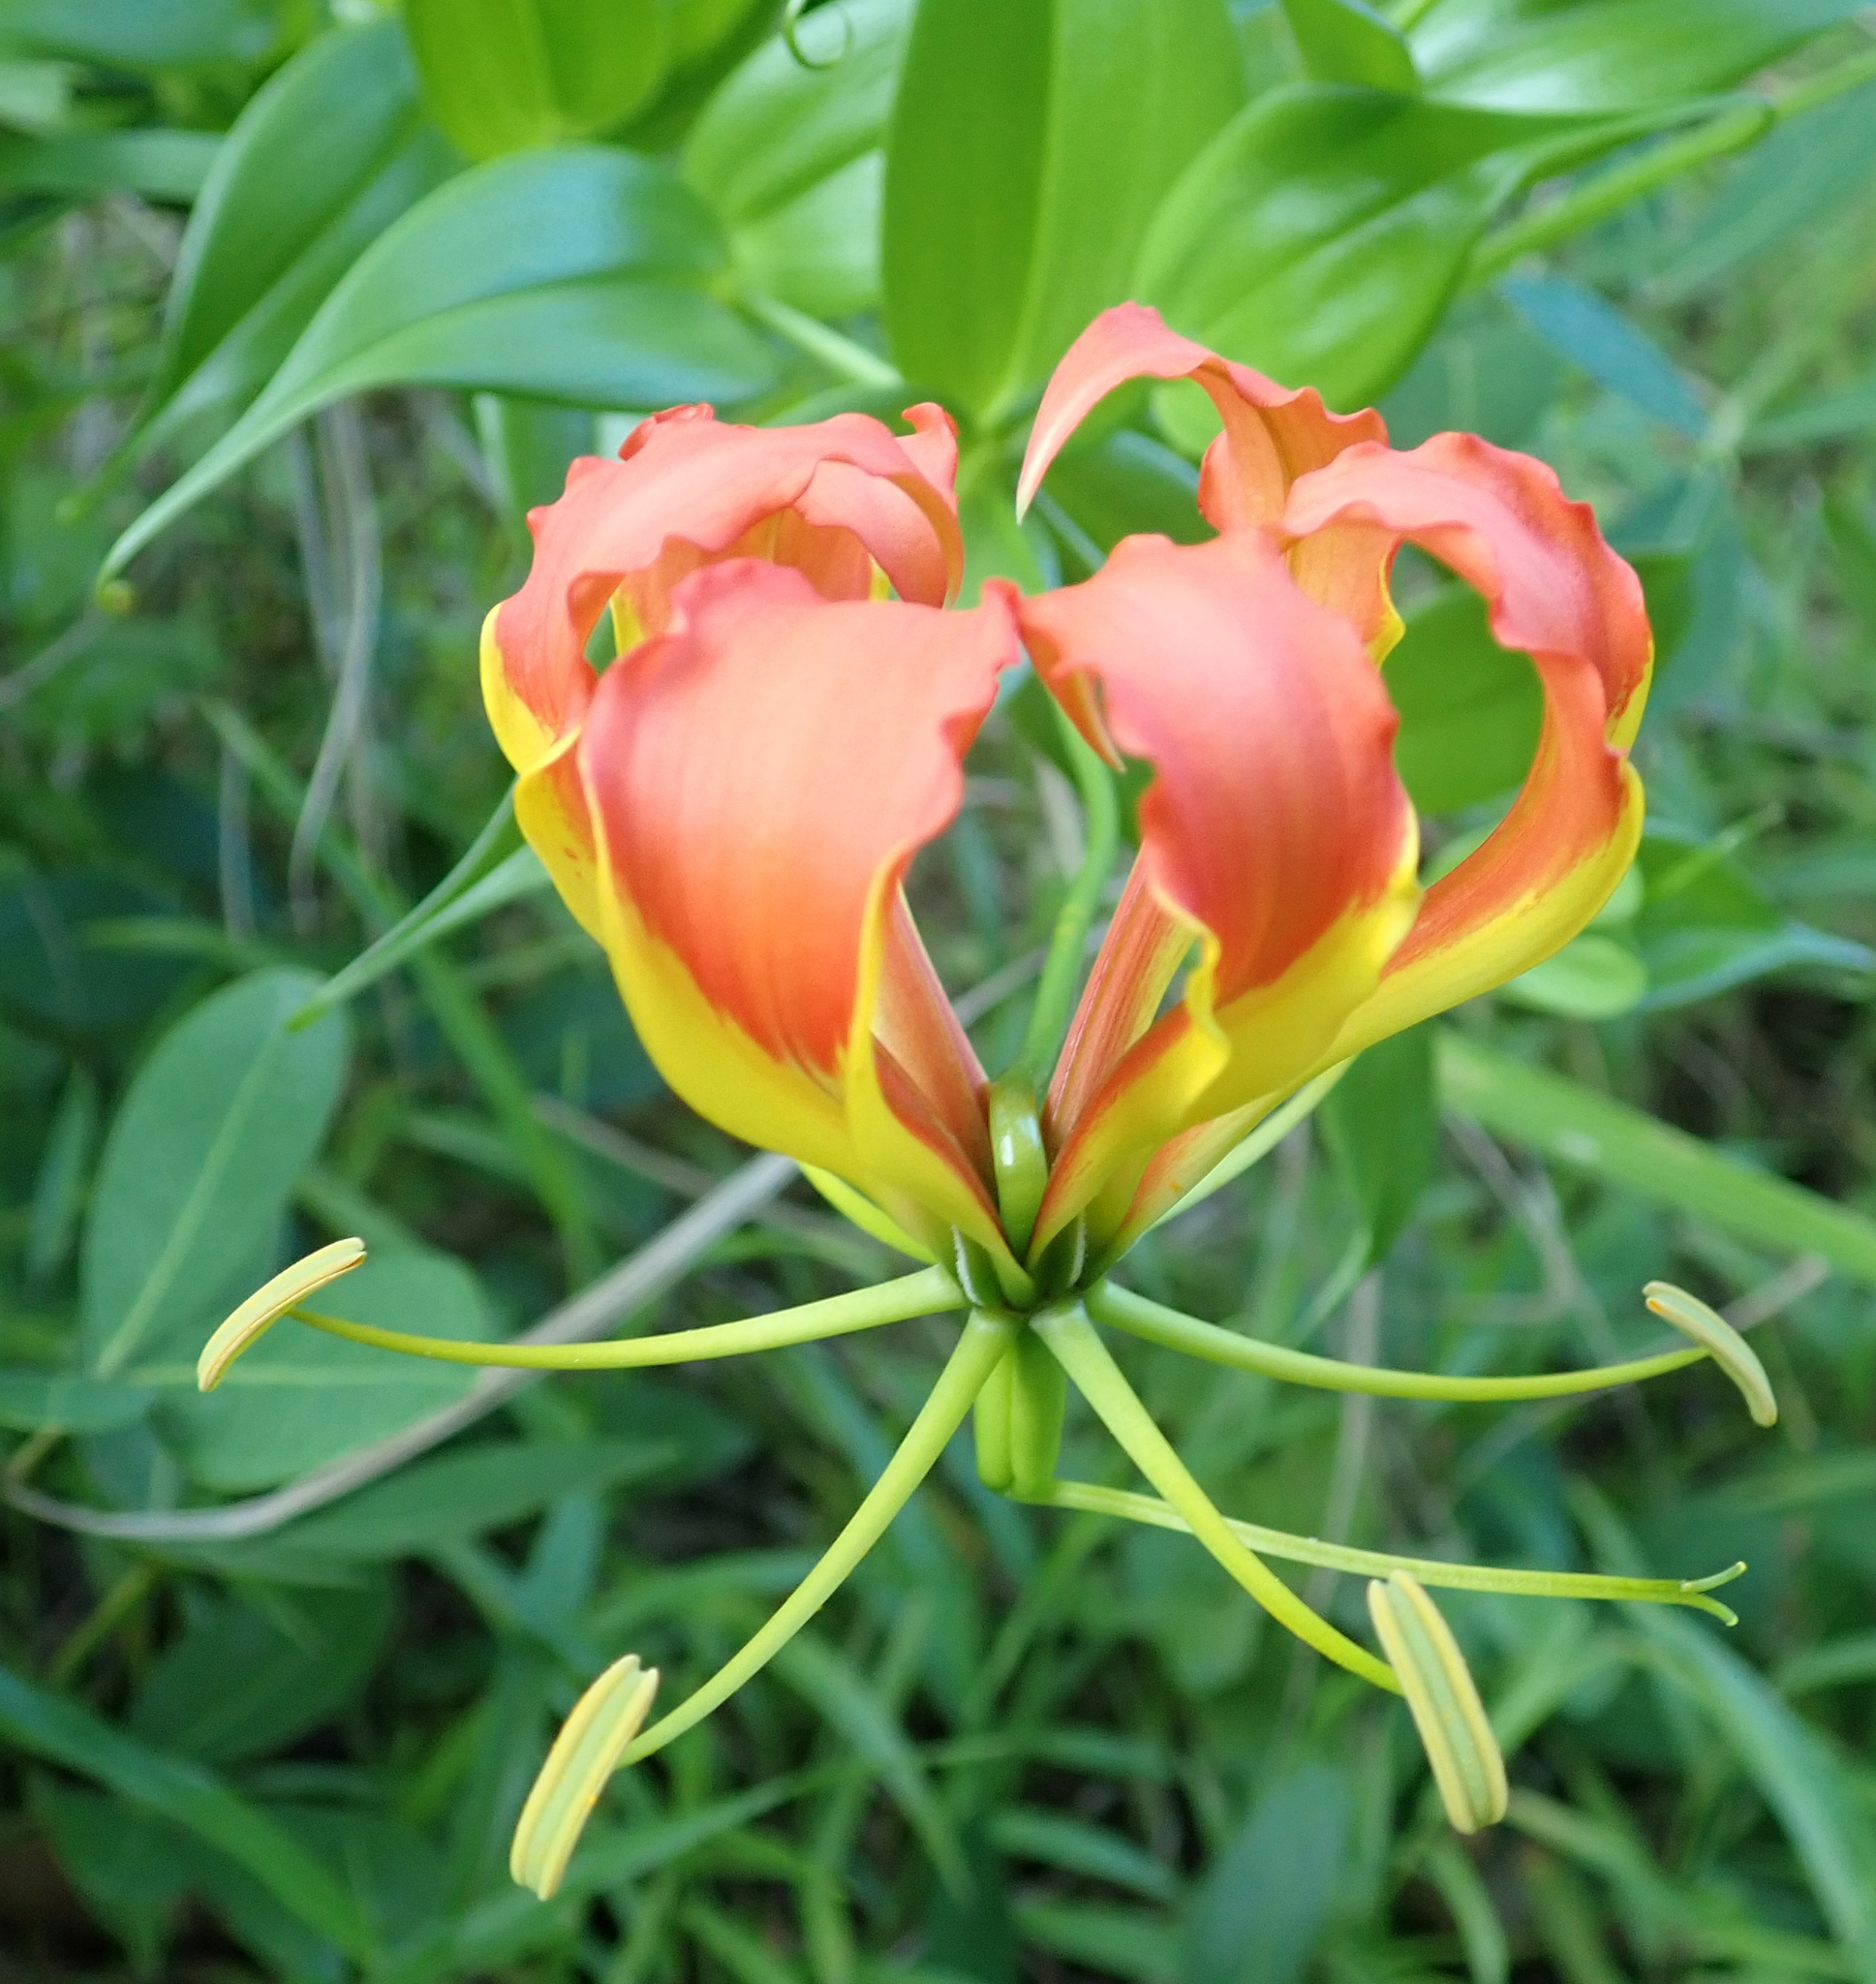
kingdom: Plantae
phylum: Tracheophyta
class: Liliopsida
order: Liliales
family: Colchicaceae
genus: Gloriosa
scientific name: Gloriosa superba
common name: Flame lily
